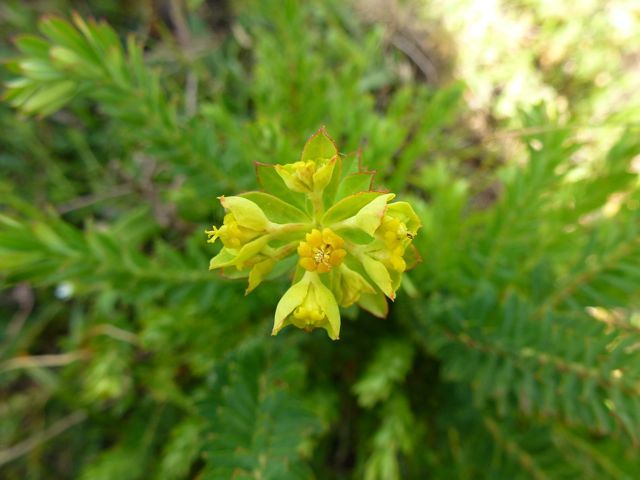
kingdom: Plantae
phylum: Tracheophyta
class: Magnoliopsida
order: Malpighiales
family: Euphorbiaceae
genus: Euphorbia
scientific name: Euphorbia genistoides
